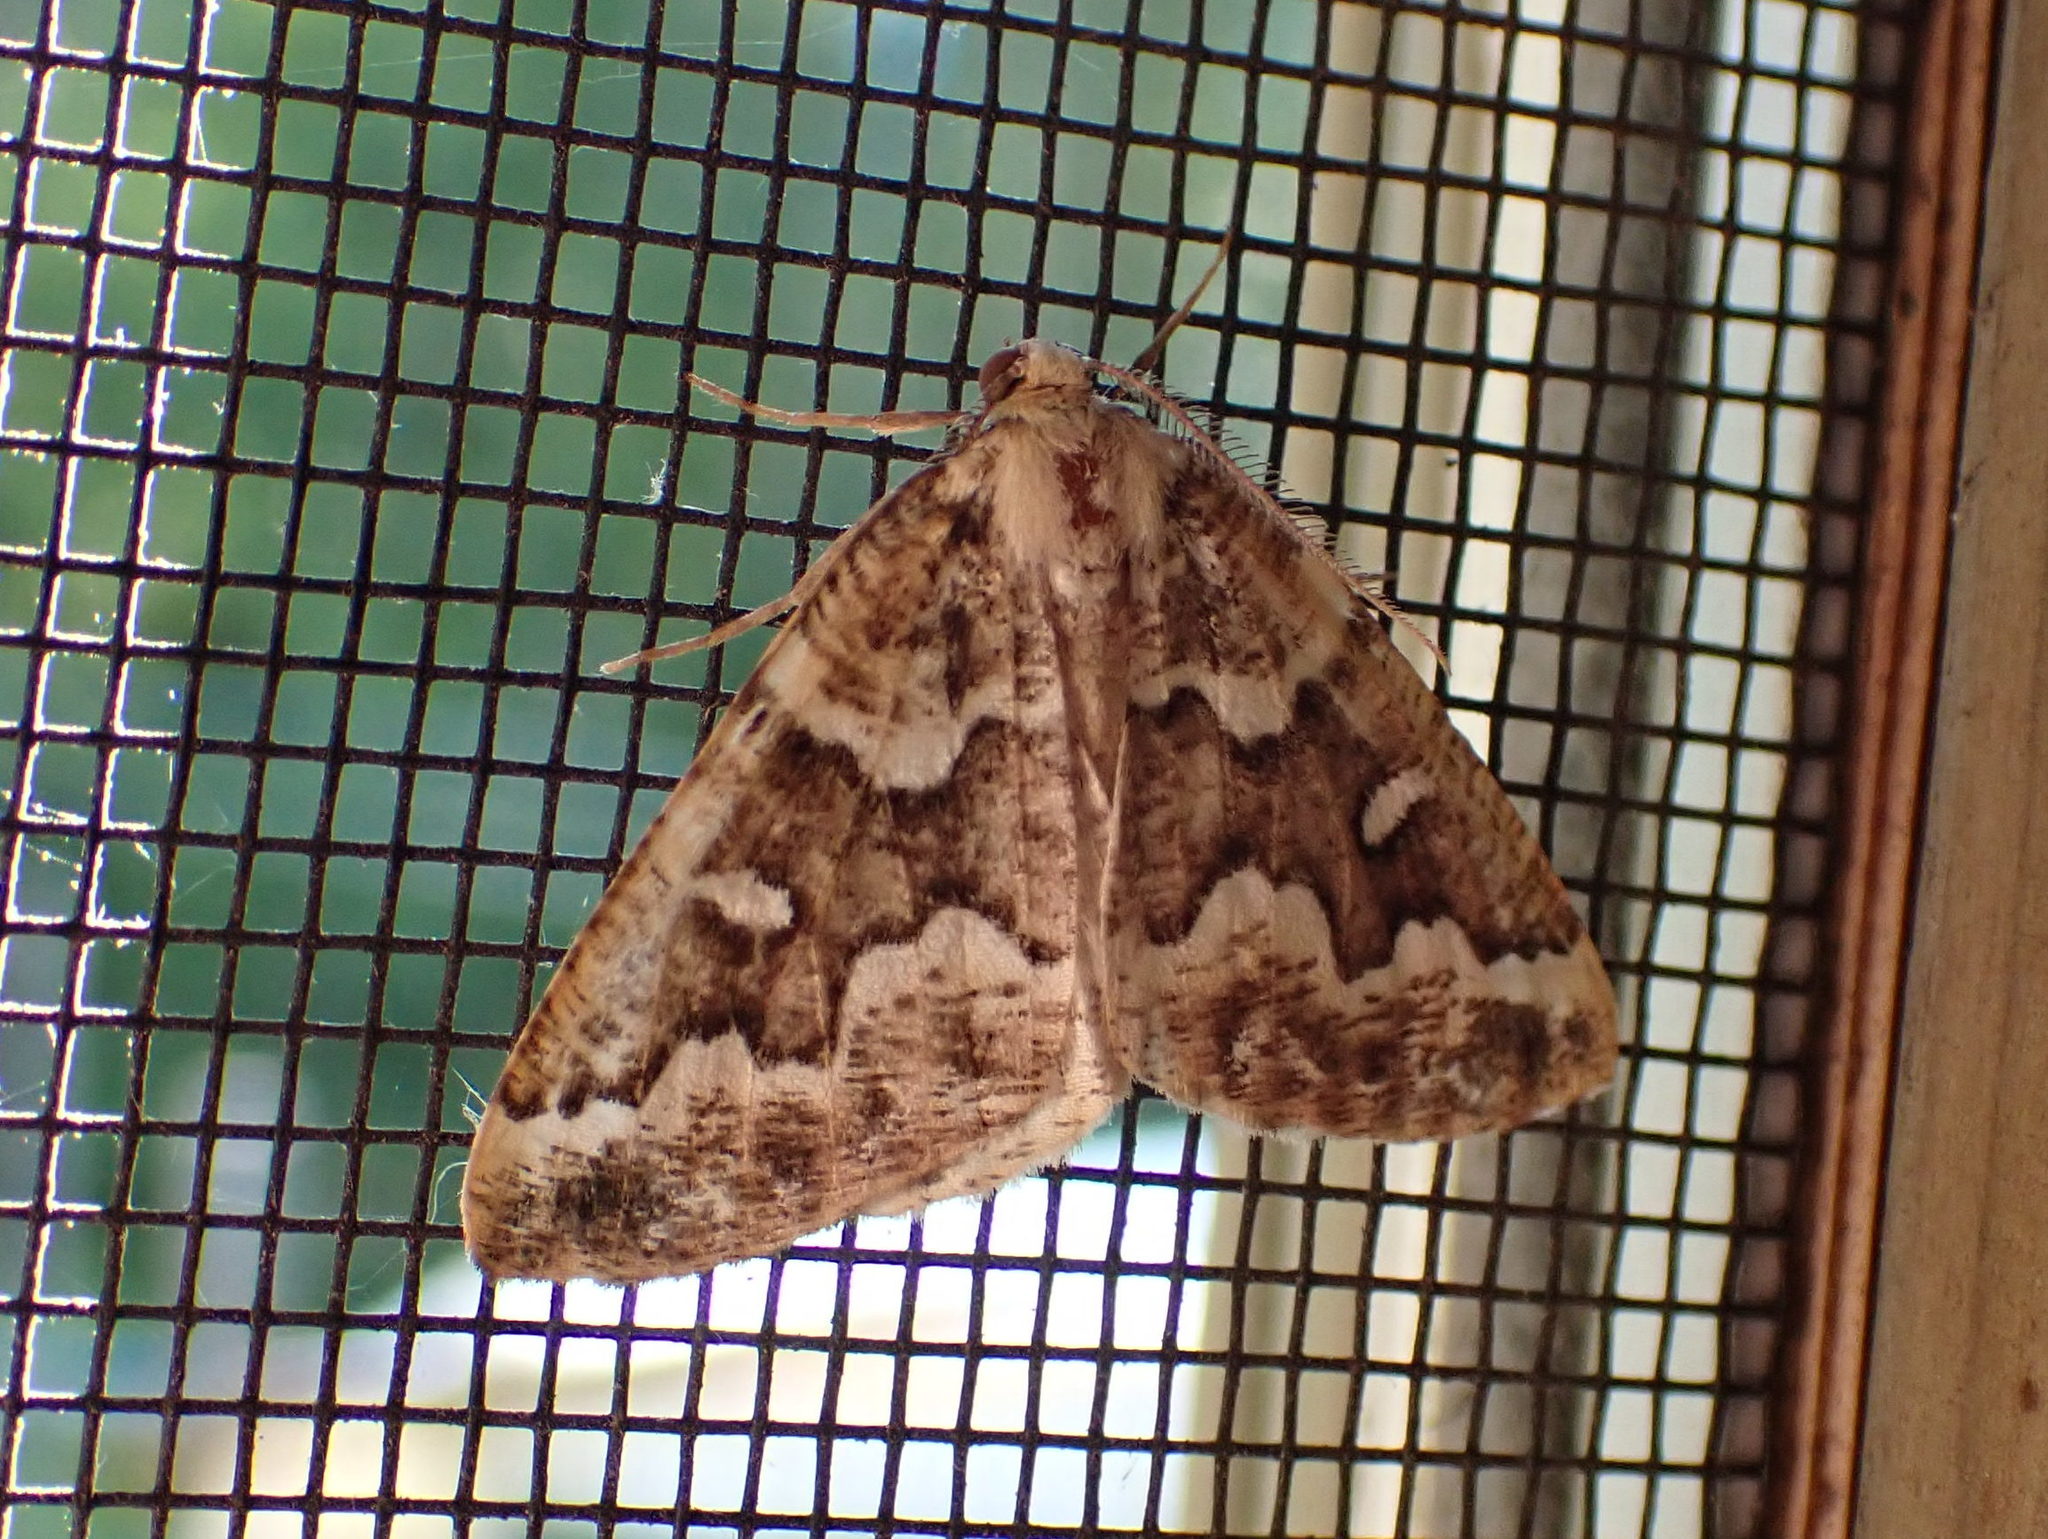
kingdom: Animalia
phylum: Arthropoda
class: Insecta
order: Lepidoptera
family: Geometridae
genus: Caripeta
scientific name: Caripeta divisata
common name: Gray spruce looper
